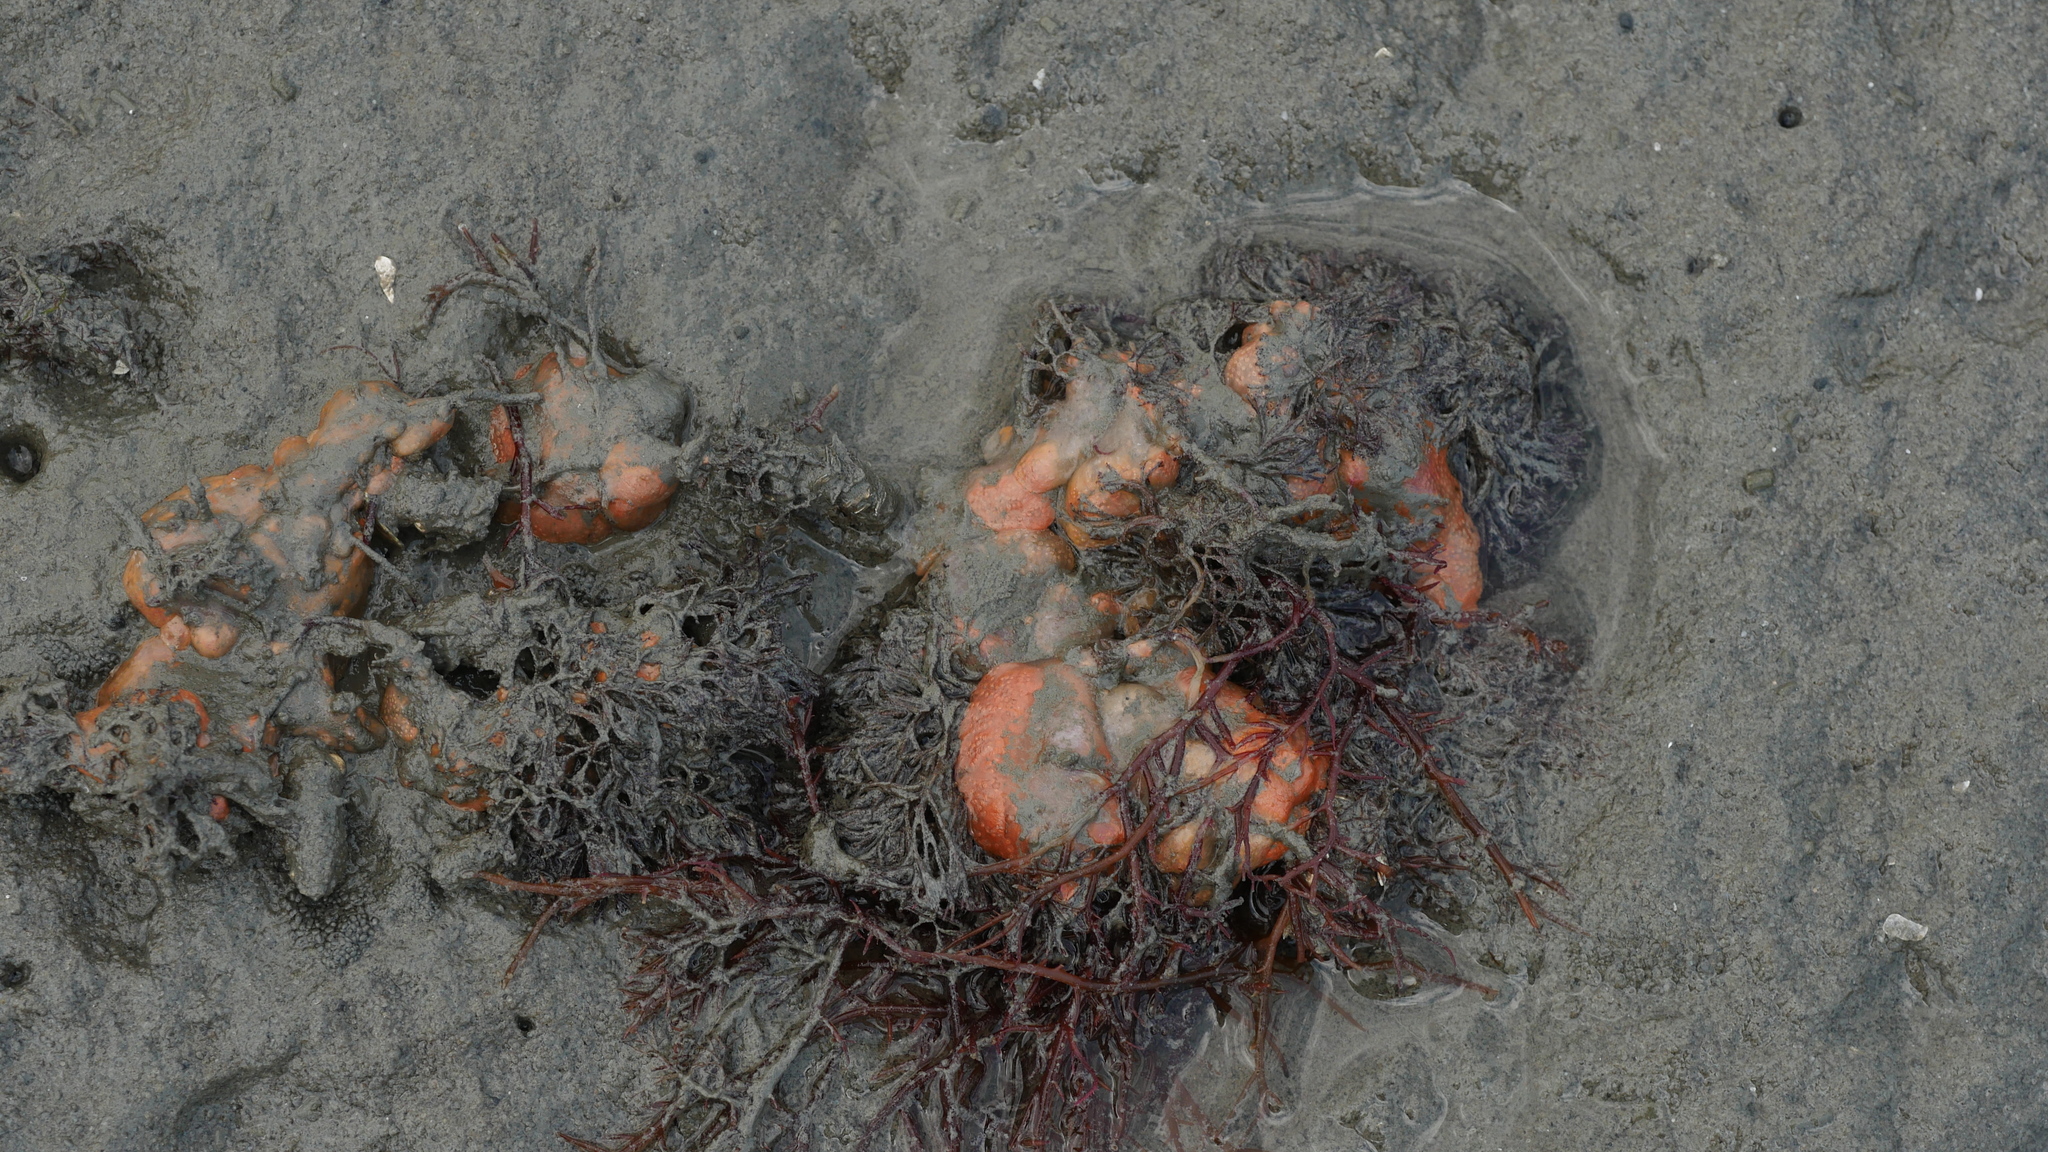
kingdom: Animalia
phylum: Chordata
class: Ascidiacea
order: Aplousobranchia
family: Polyclinidae
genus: Aplidium
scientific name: Aplidium stellatum
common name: Atlantic sea pork
